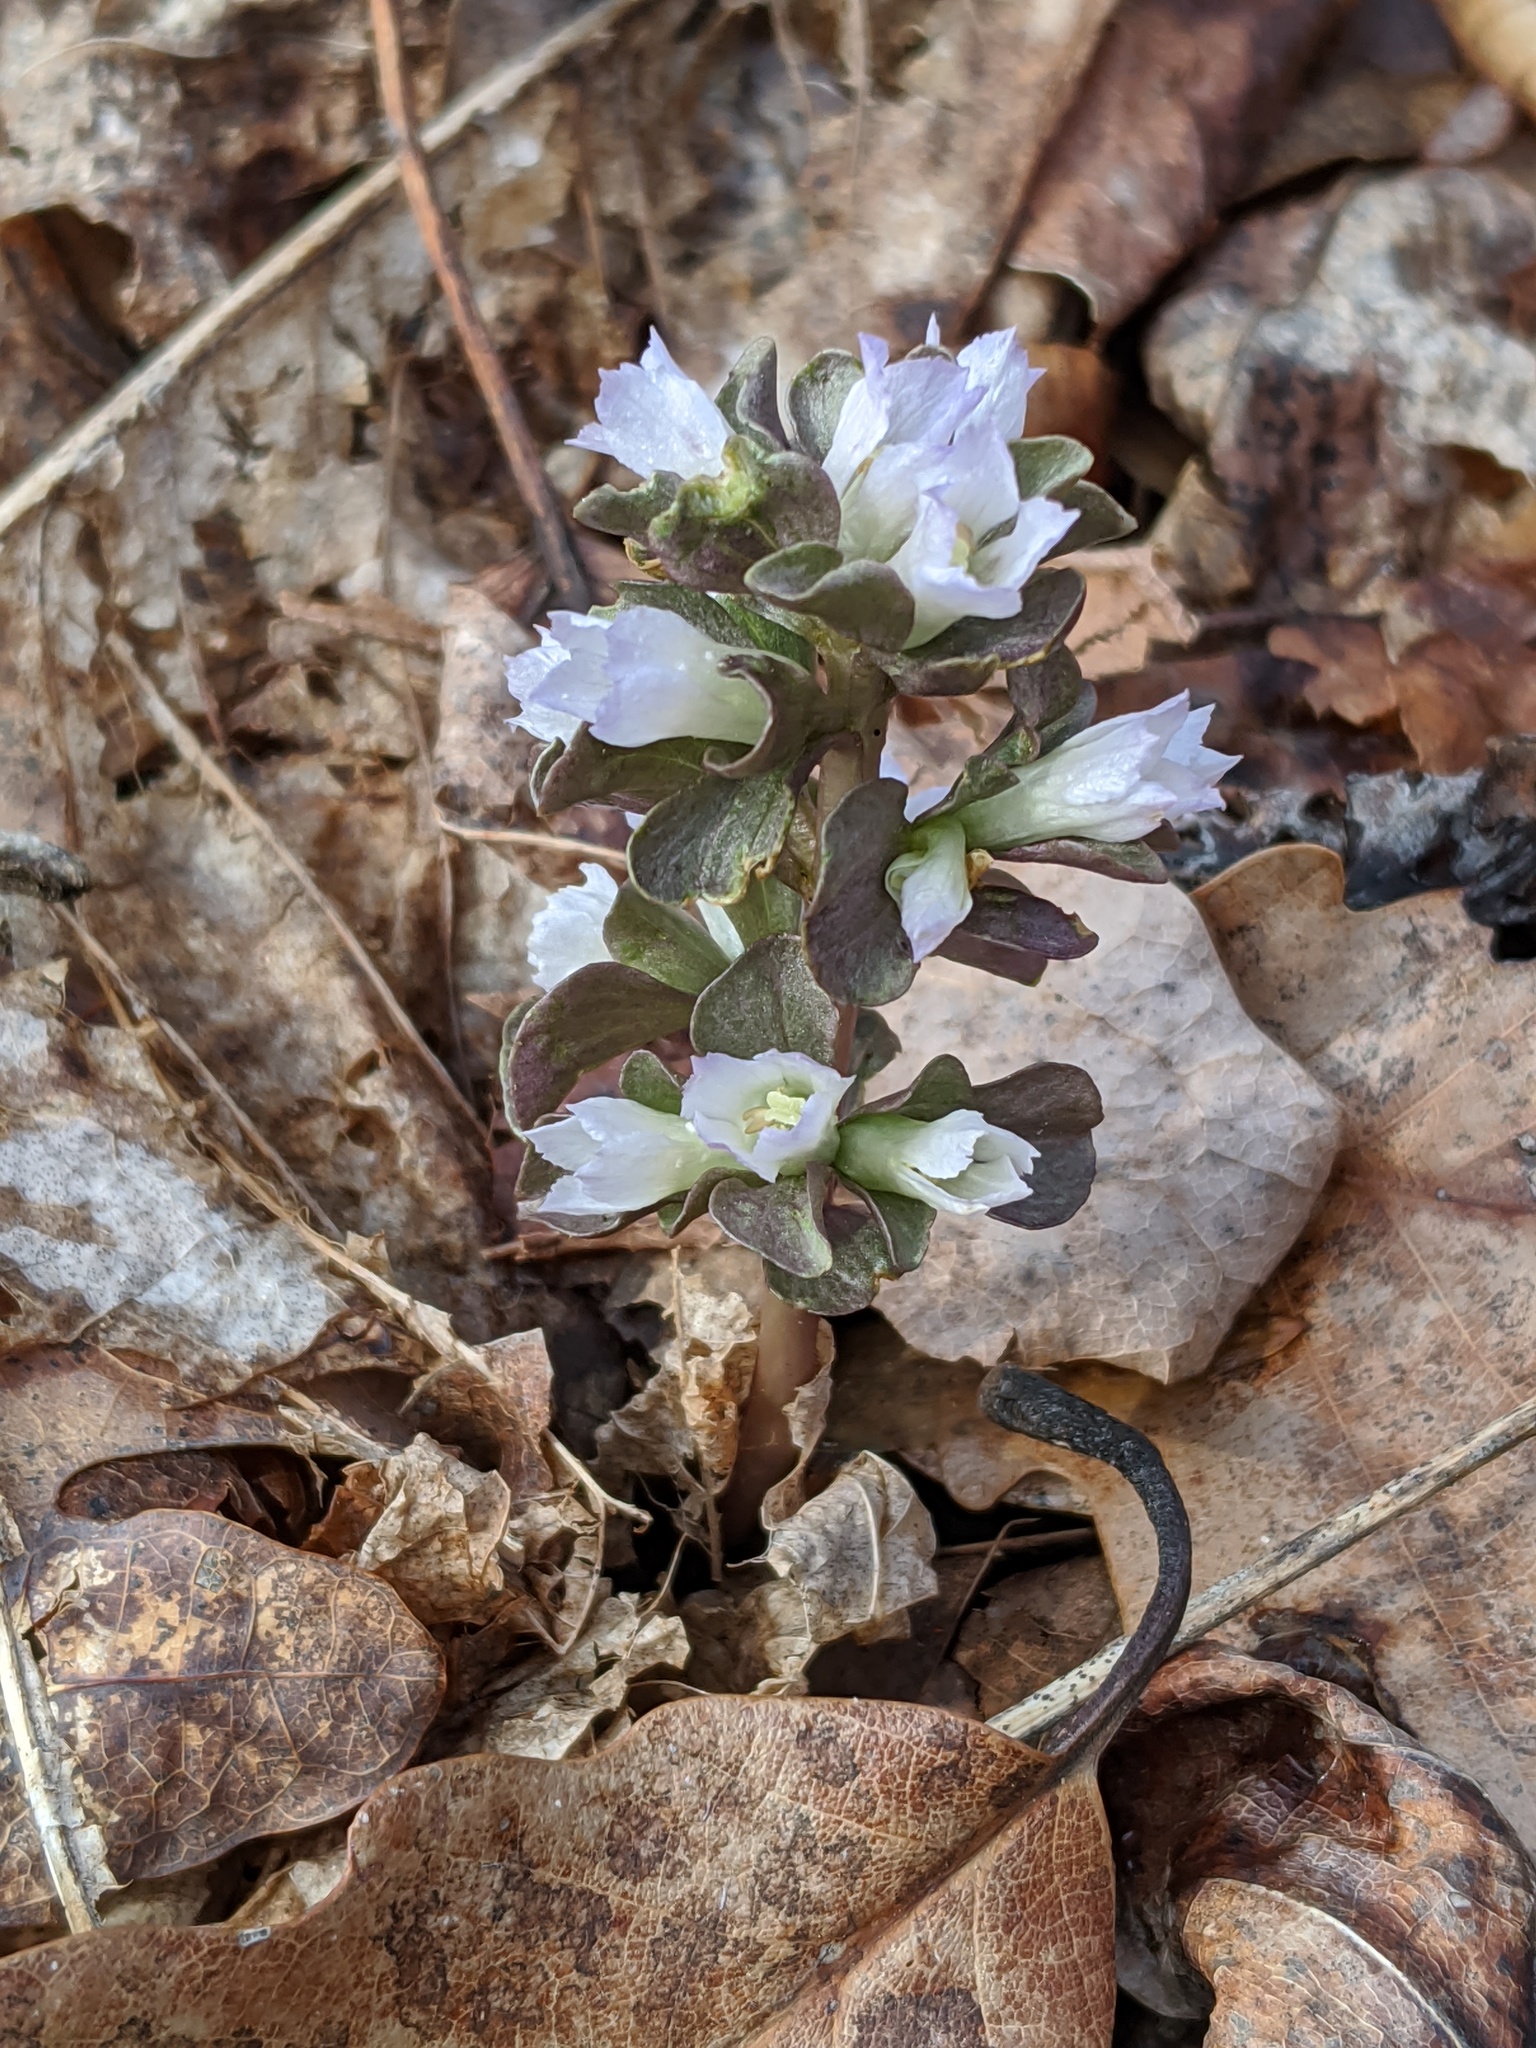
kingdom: Plantae
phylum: Tracheophyta
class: Magnoliopsida
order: Gentianales
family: Gentianaceae
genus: Obolaria
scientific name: Obolaria virginica
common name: Pennywort
